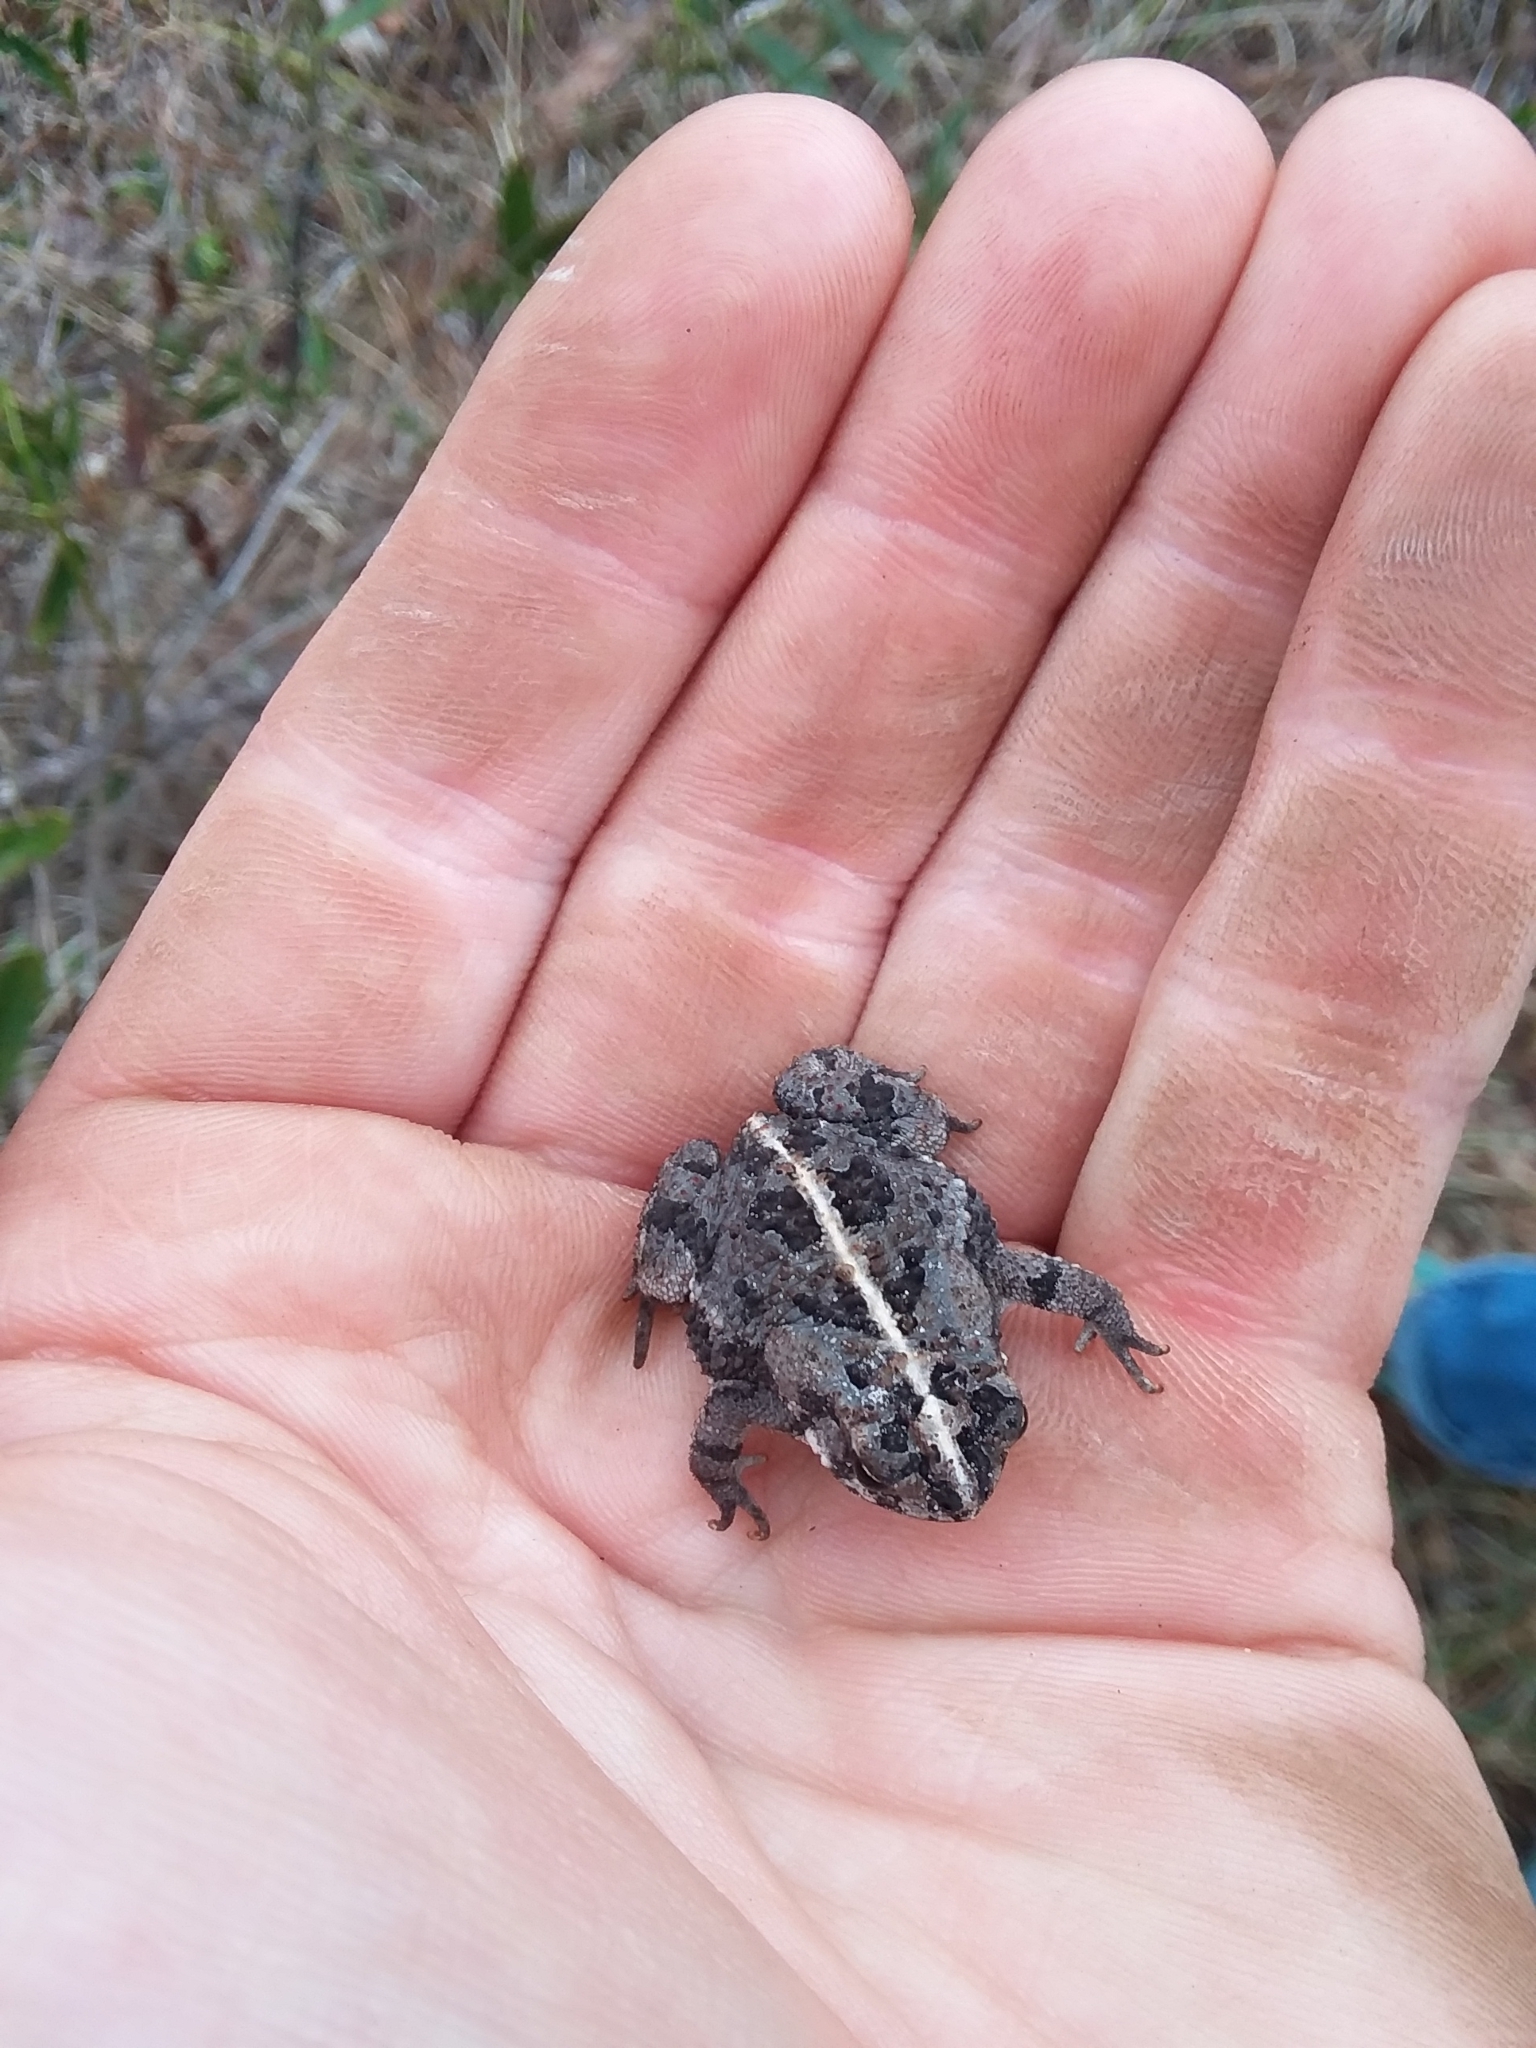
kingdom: Animalia
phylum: Chordata
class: Amphibia
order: Anura
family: Bufonidae
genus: Anaxyrus
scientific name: Anaxyrus quercicus
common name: Oak toad
